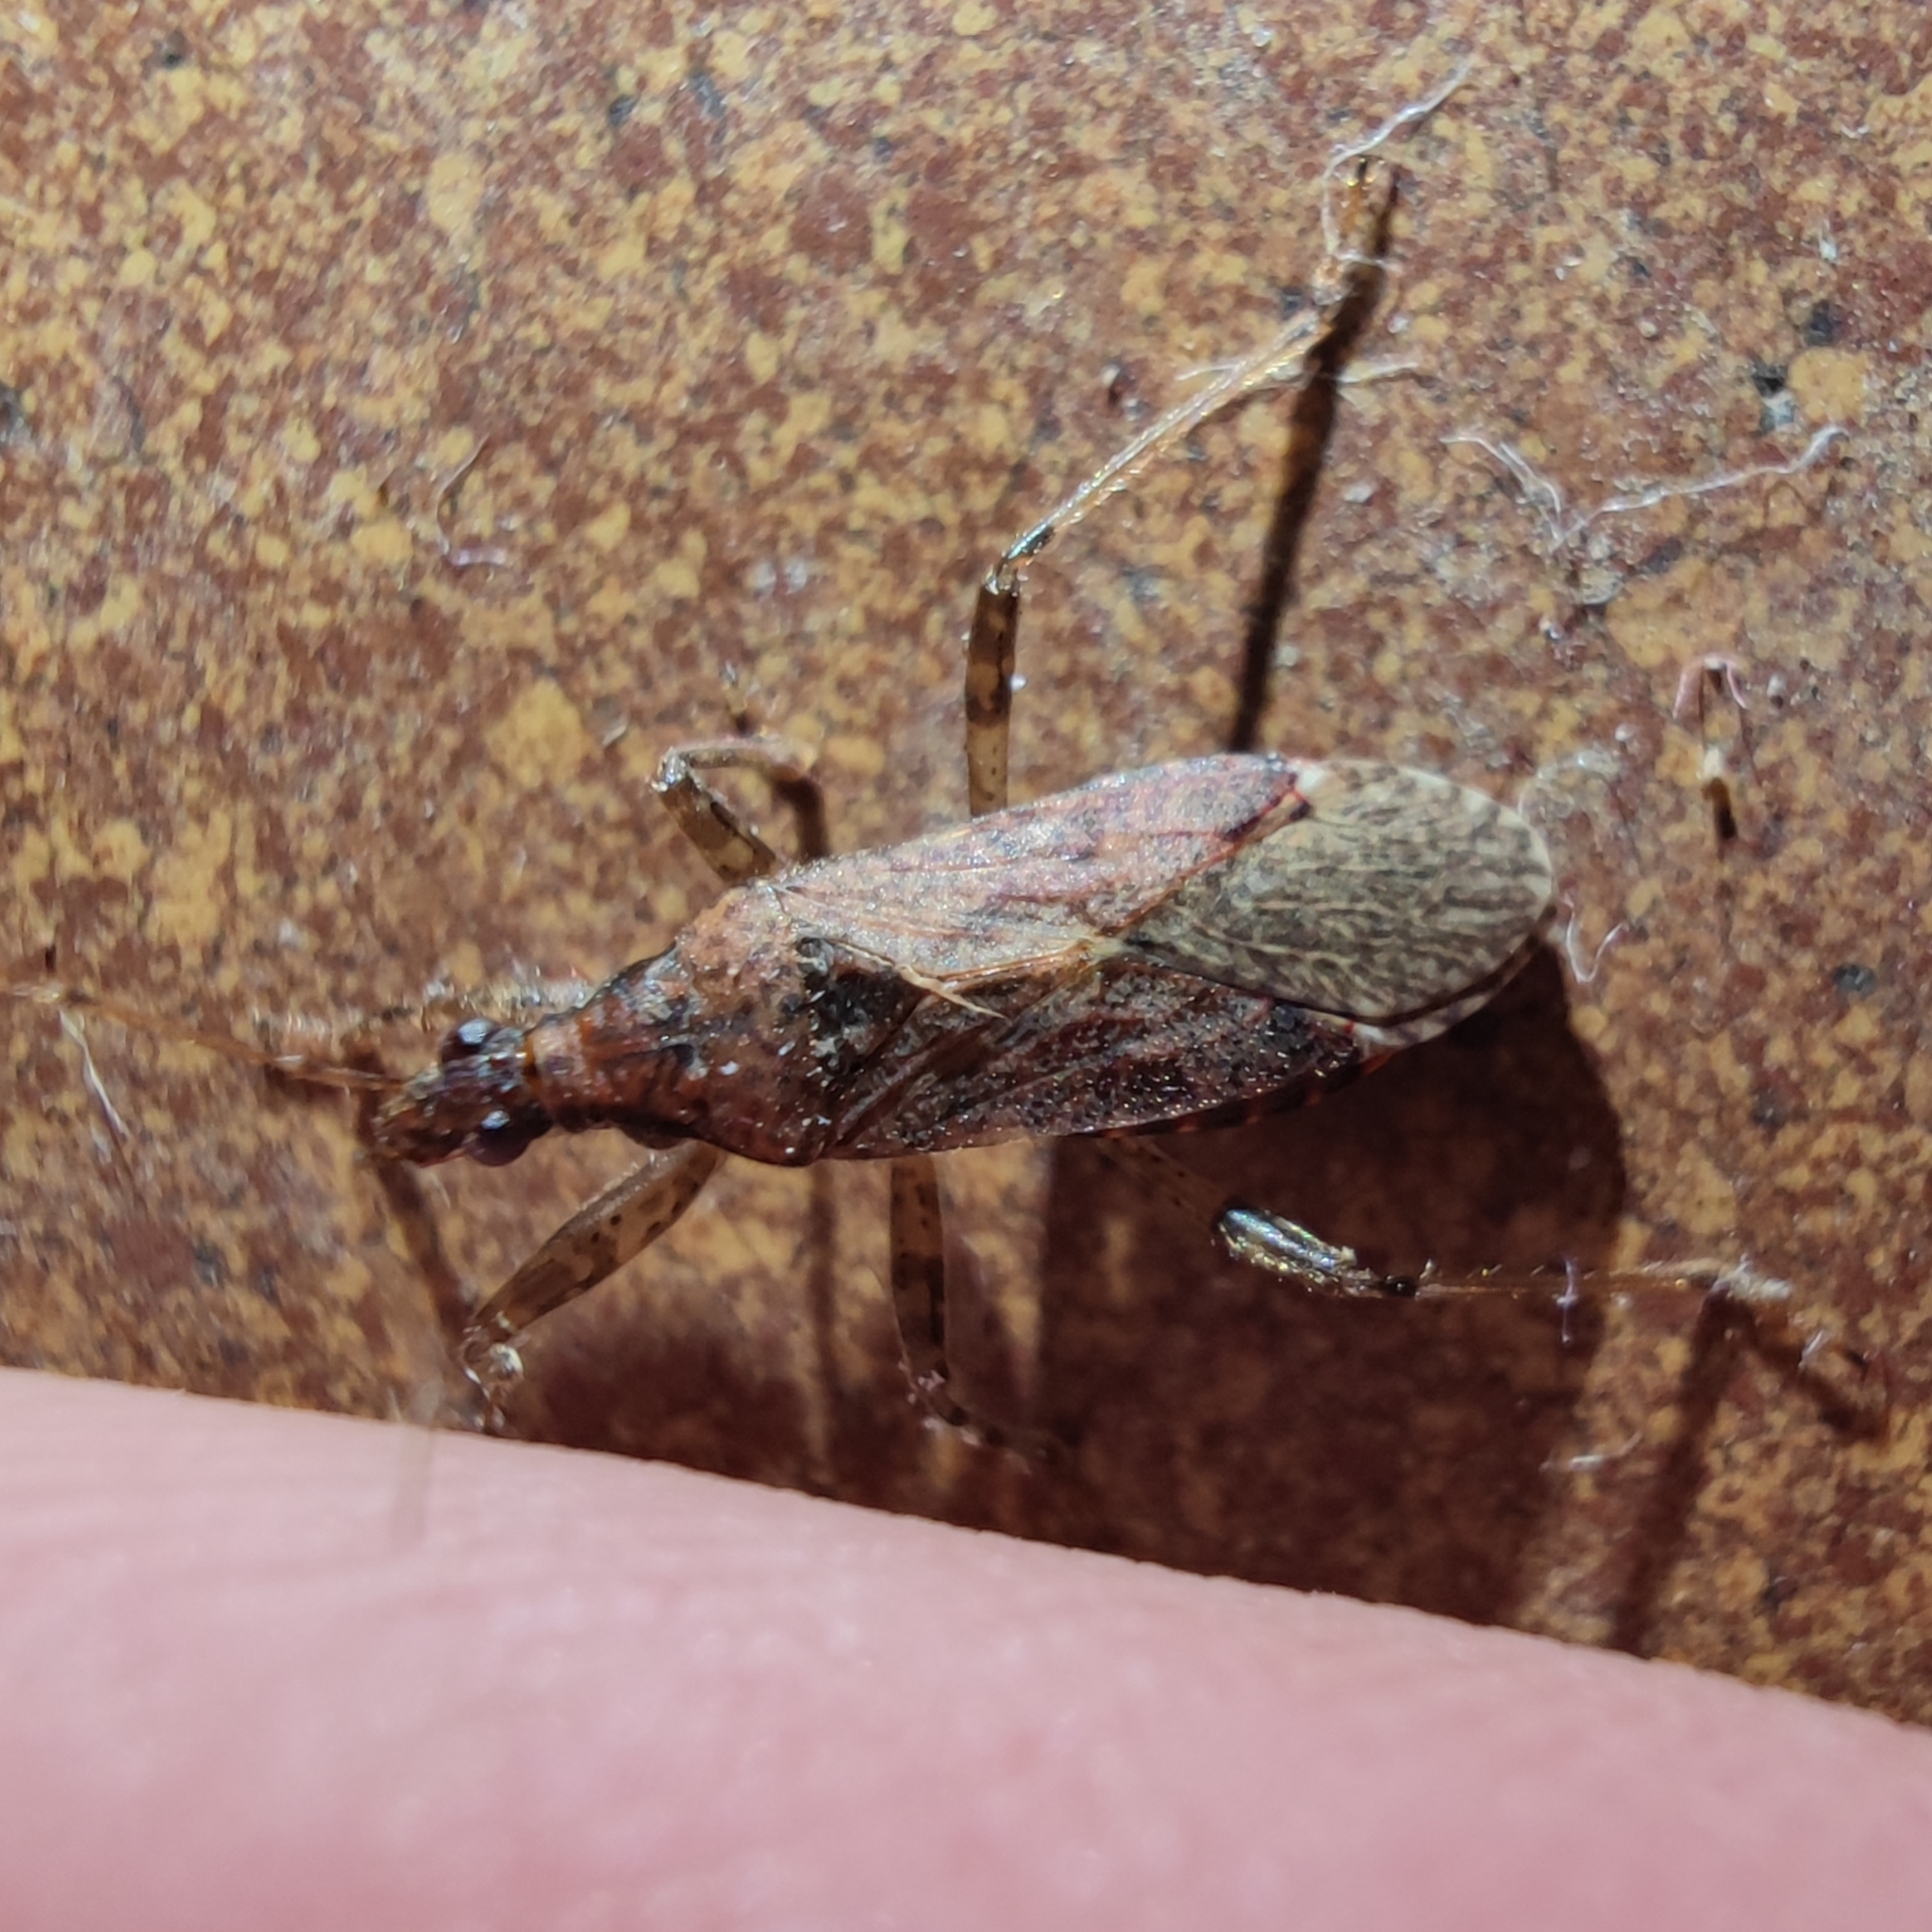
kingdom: Animalia
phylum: Arthropoda
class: Insecta
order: Hemiptera
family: Nabidae
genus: Himacerus
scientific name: Himacerus mirmicoides
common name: Ant damsel bug
